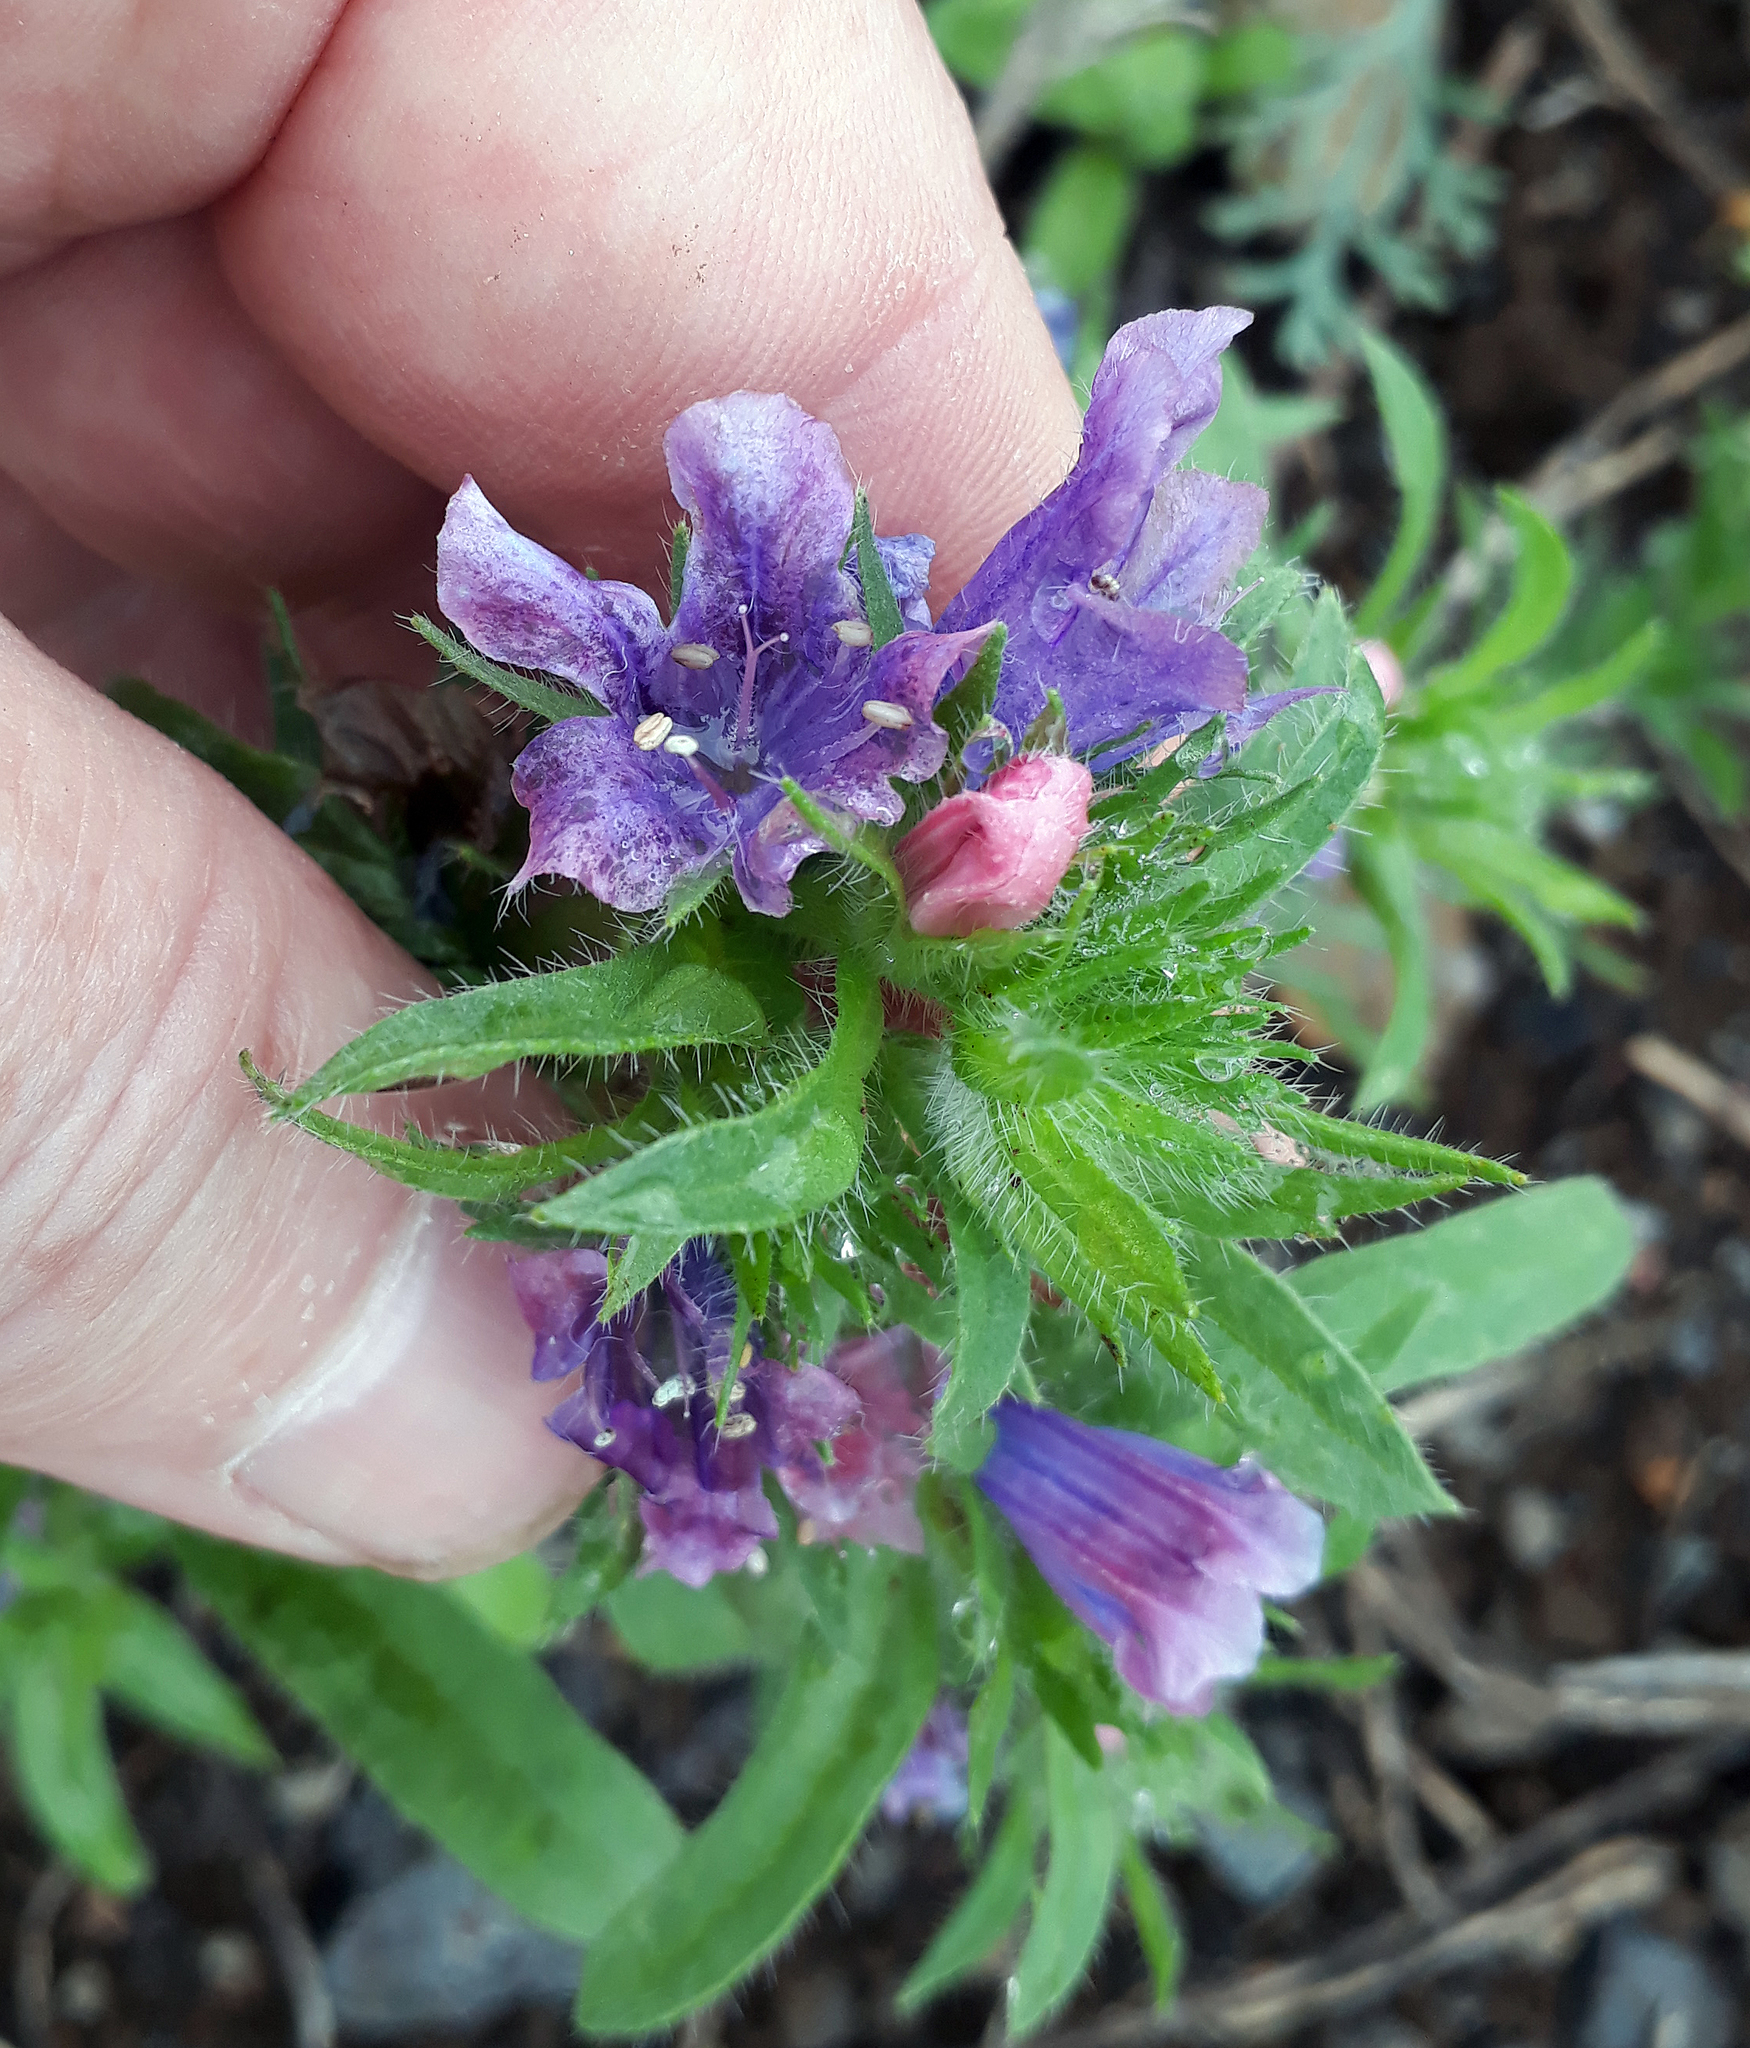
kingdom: Plantae
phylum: Tracheophyta
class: Magnoliopsida
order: Boraginales
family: Boraginaceae
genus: Echium
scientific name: Echium plantagineum
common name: Purple viper's-bugloss
